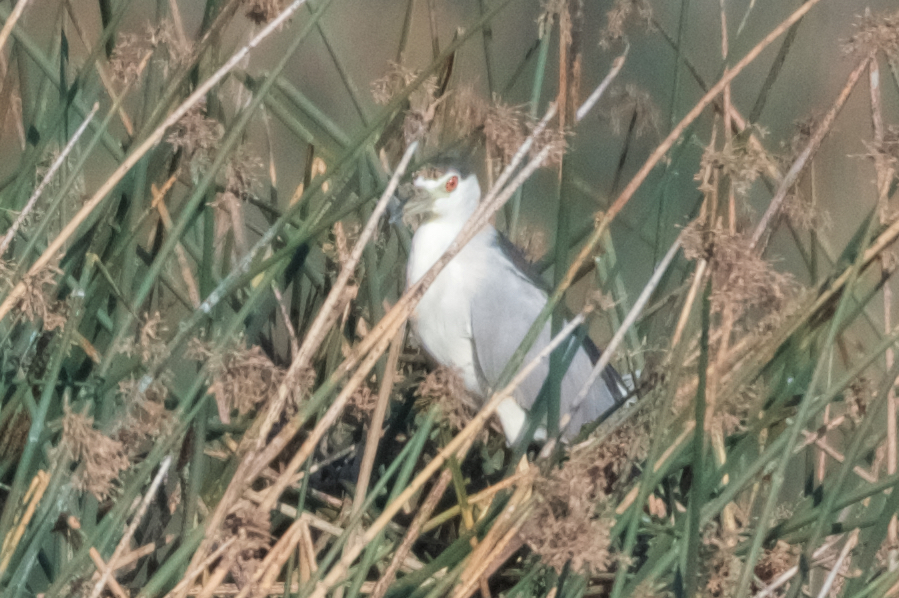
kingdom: Animalia
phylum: Chordata
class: Aves
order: Pelecaniformes
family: Ardeidae
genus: Nycticorax
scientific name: Nycticorax nycticorax
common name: Black-crowned night heron
